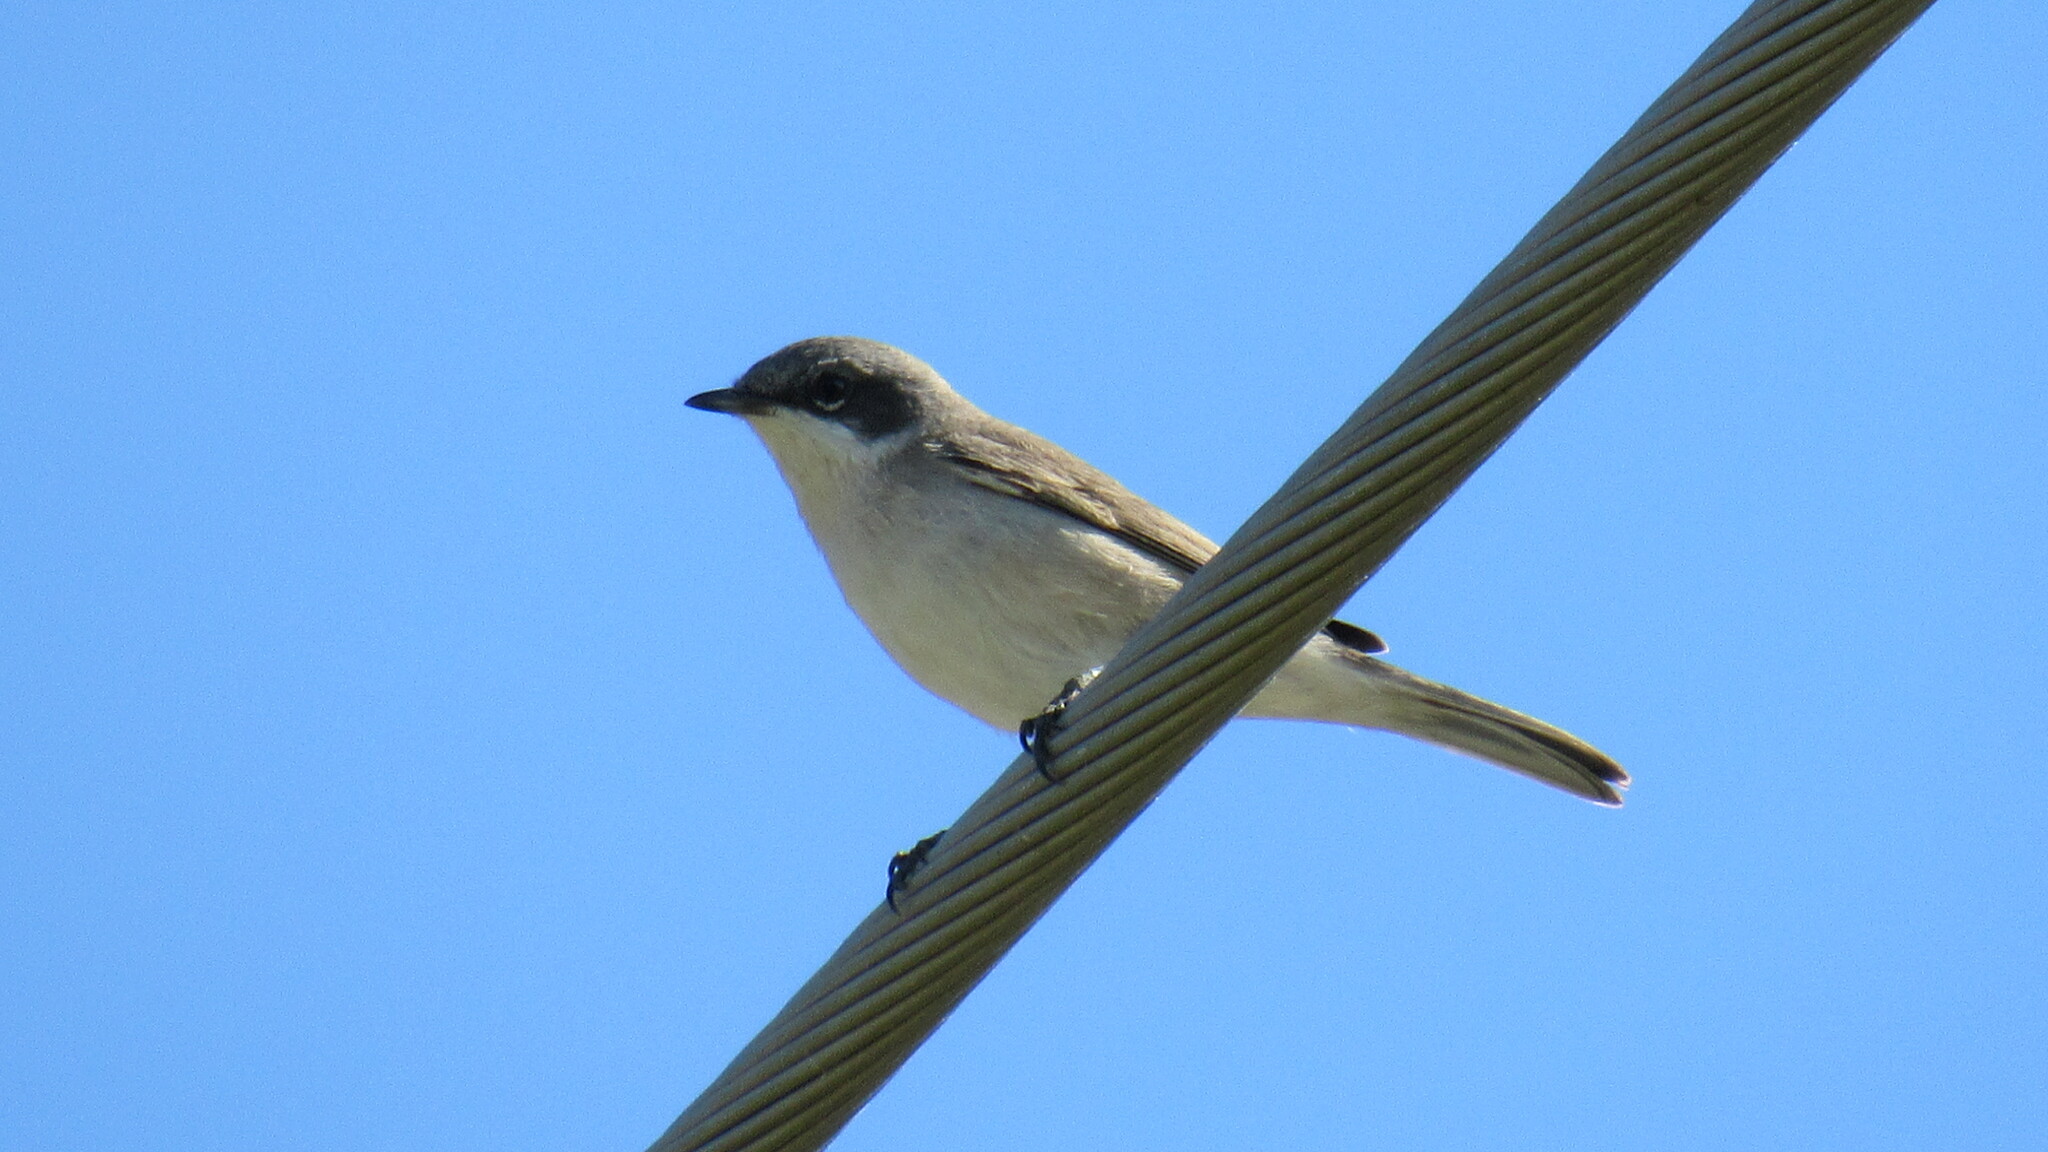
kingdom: Animalia
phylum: Chordata
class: Aves
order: Passeriformes
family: Sylviidae
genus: Sylvia
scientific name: Sylvia curruca
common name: Lesser whitethroat
